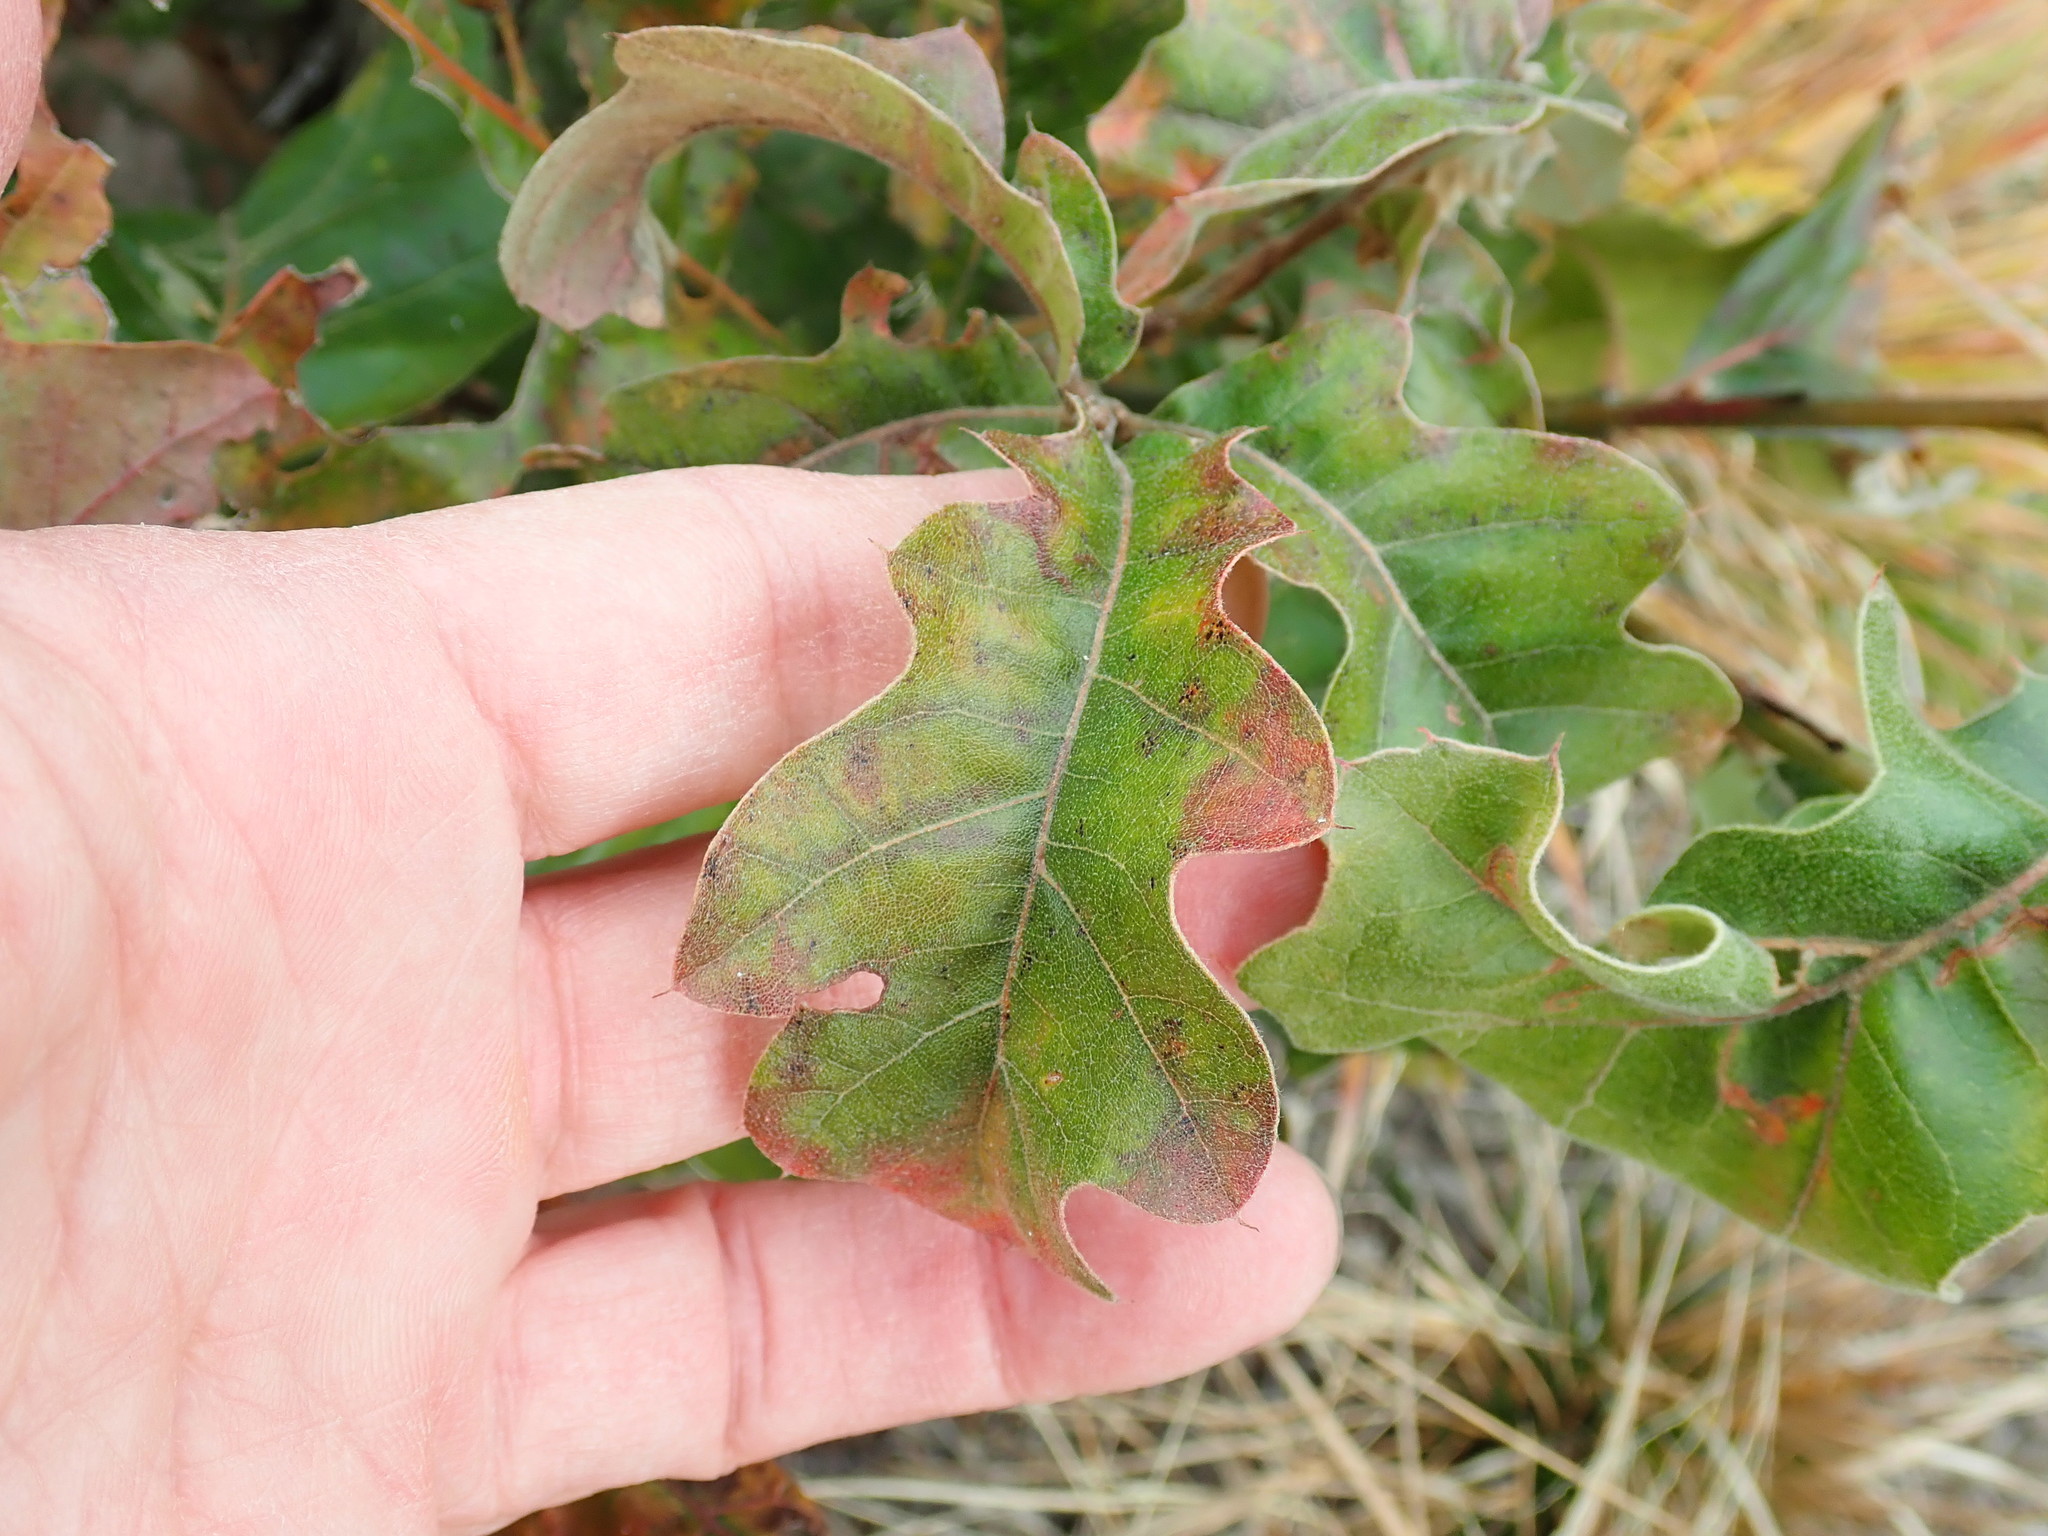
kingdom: Plantae
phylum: Tracheophyta
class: Magnoliopsida
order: Fagales
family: Fagaceae
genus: Quercus
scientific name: Quercus ilicifolia
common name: Bear oak
